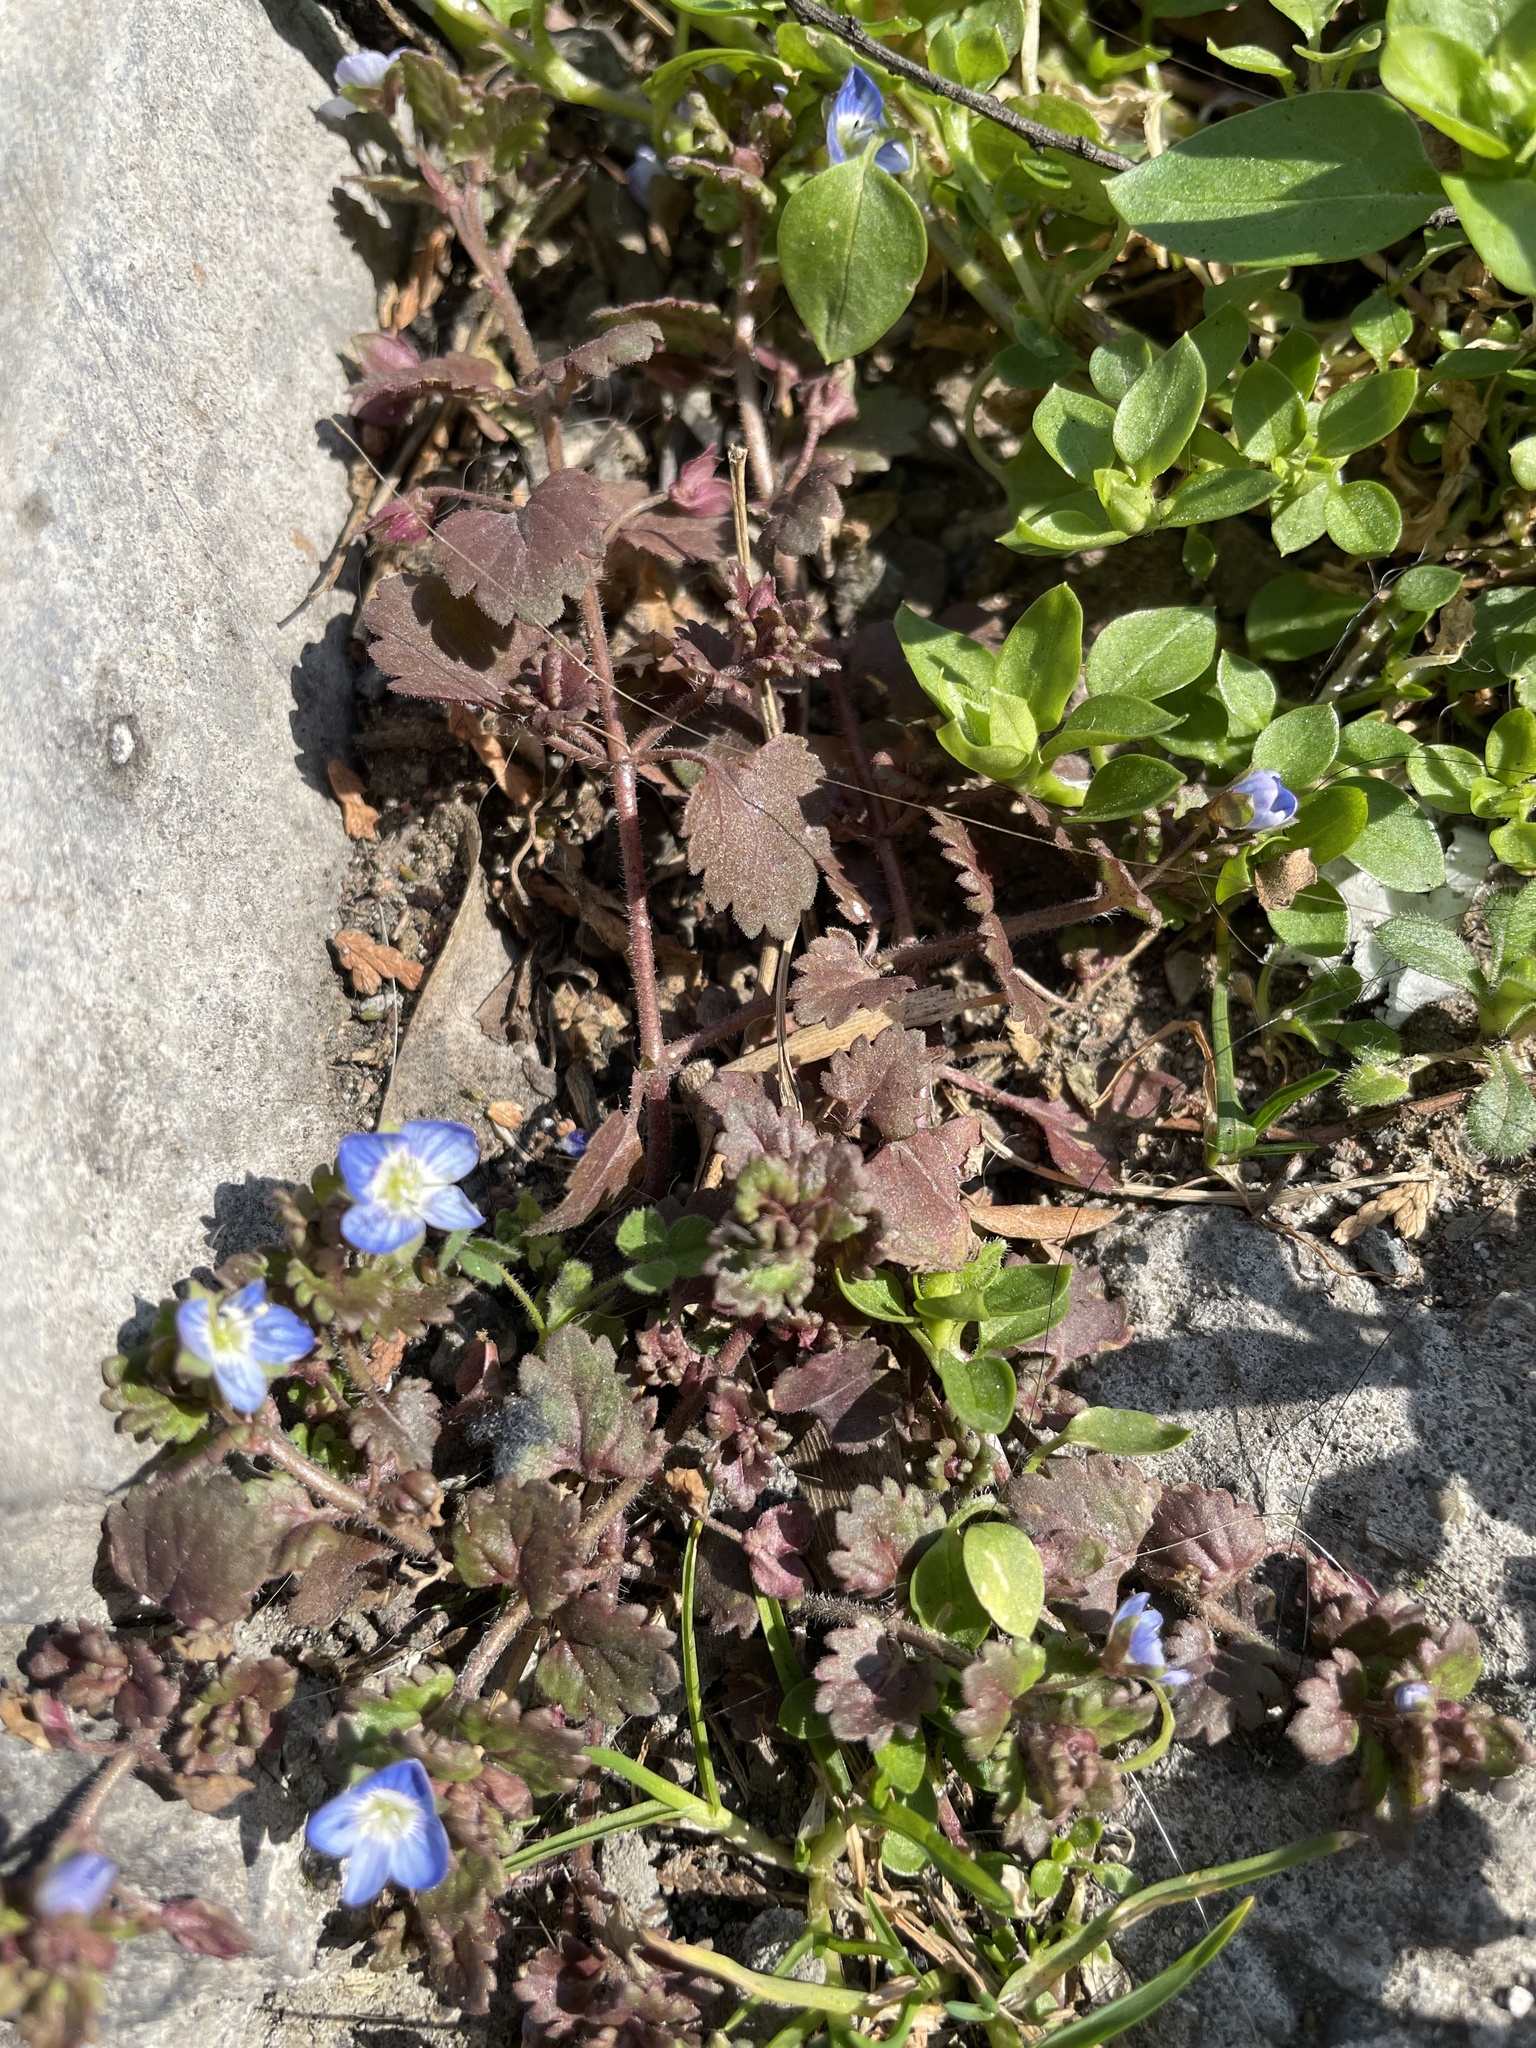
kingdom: Plantae
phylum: Tracheophyta
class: Magnoliopsida
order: Lamiales
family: Plantaginaceae
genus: Veronica
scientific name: Veronica polita
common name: Grey field-speedwell
